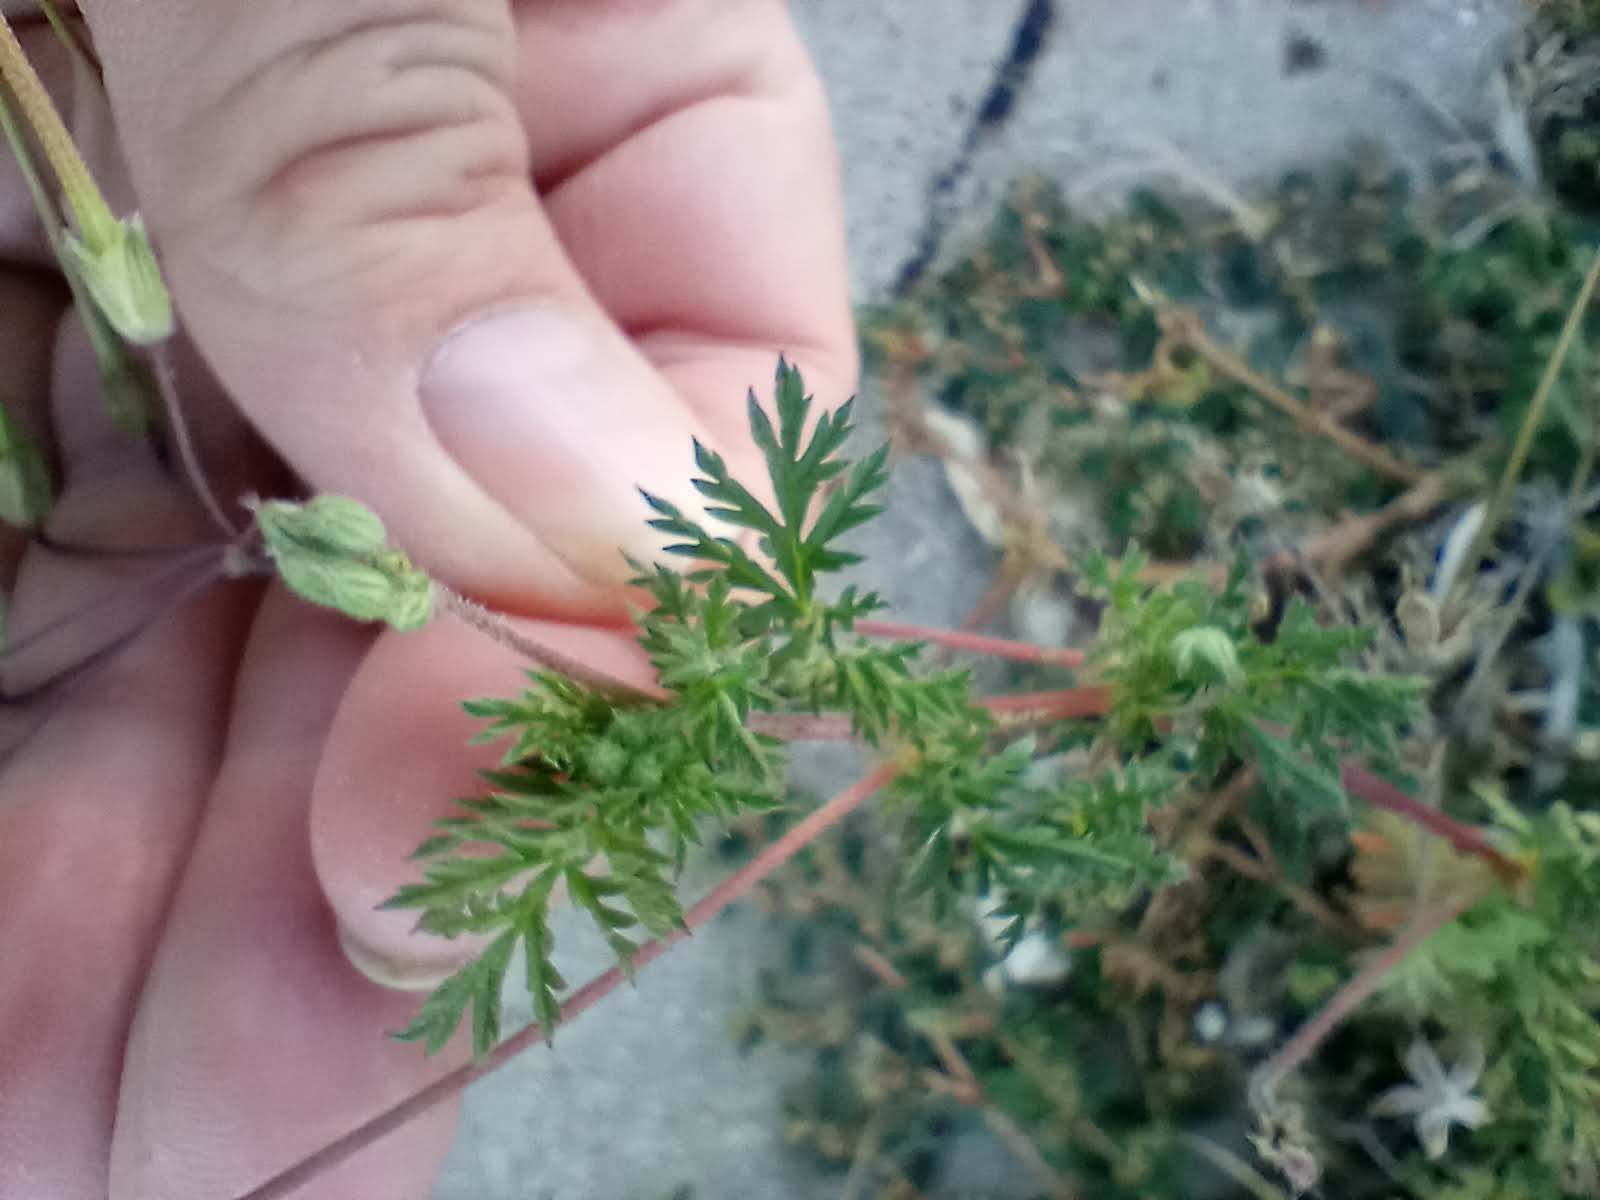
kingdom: Plantae
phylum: Tracheophyta
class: Magnoliopsida
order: Geraniales
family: Geraniaceae
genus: Erodium
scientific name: Erodium cicutarium
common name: Common stork's-bill
